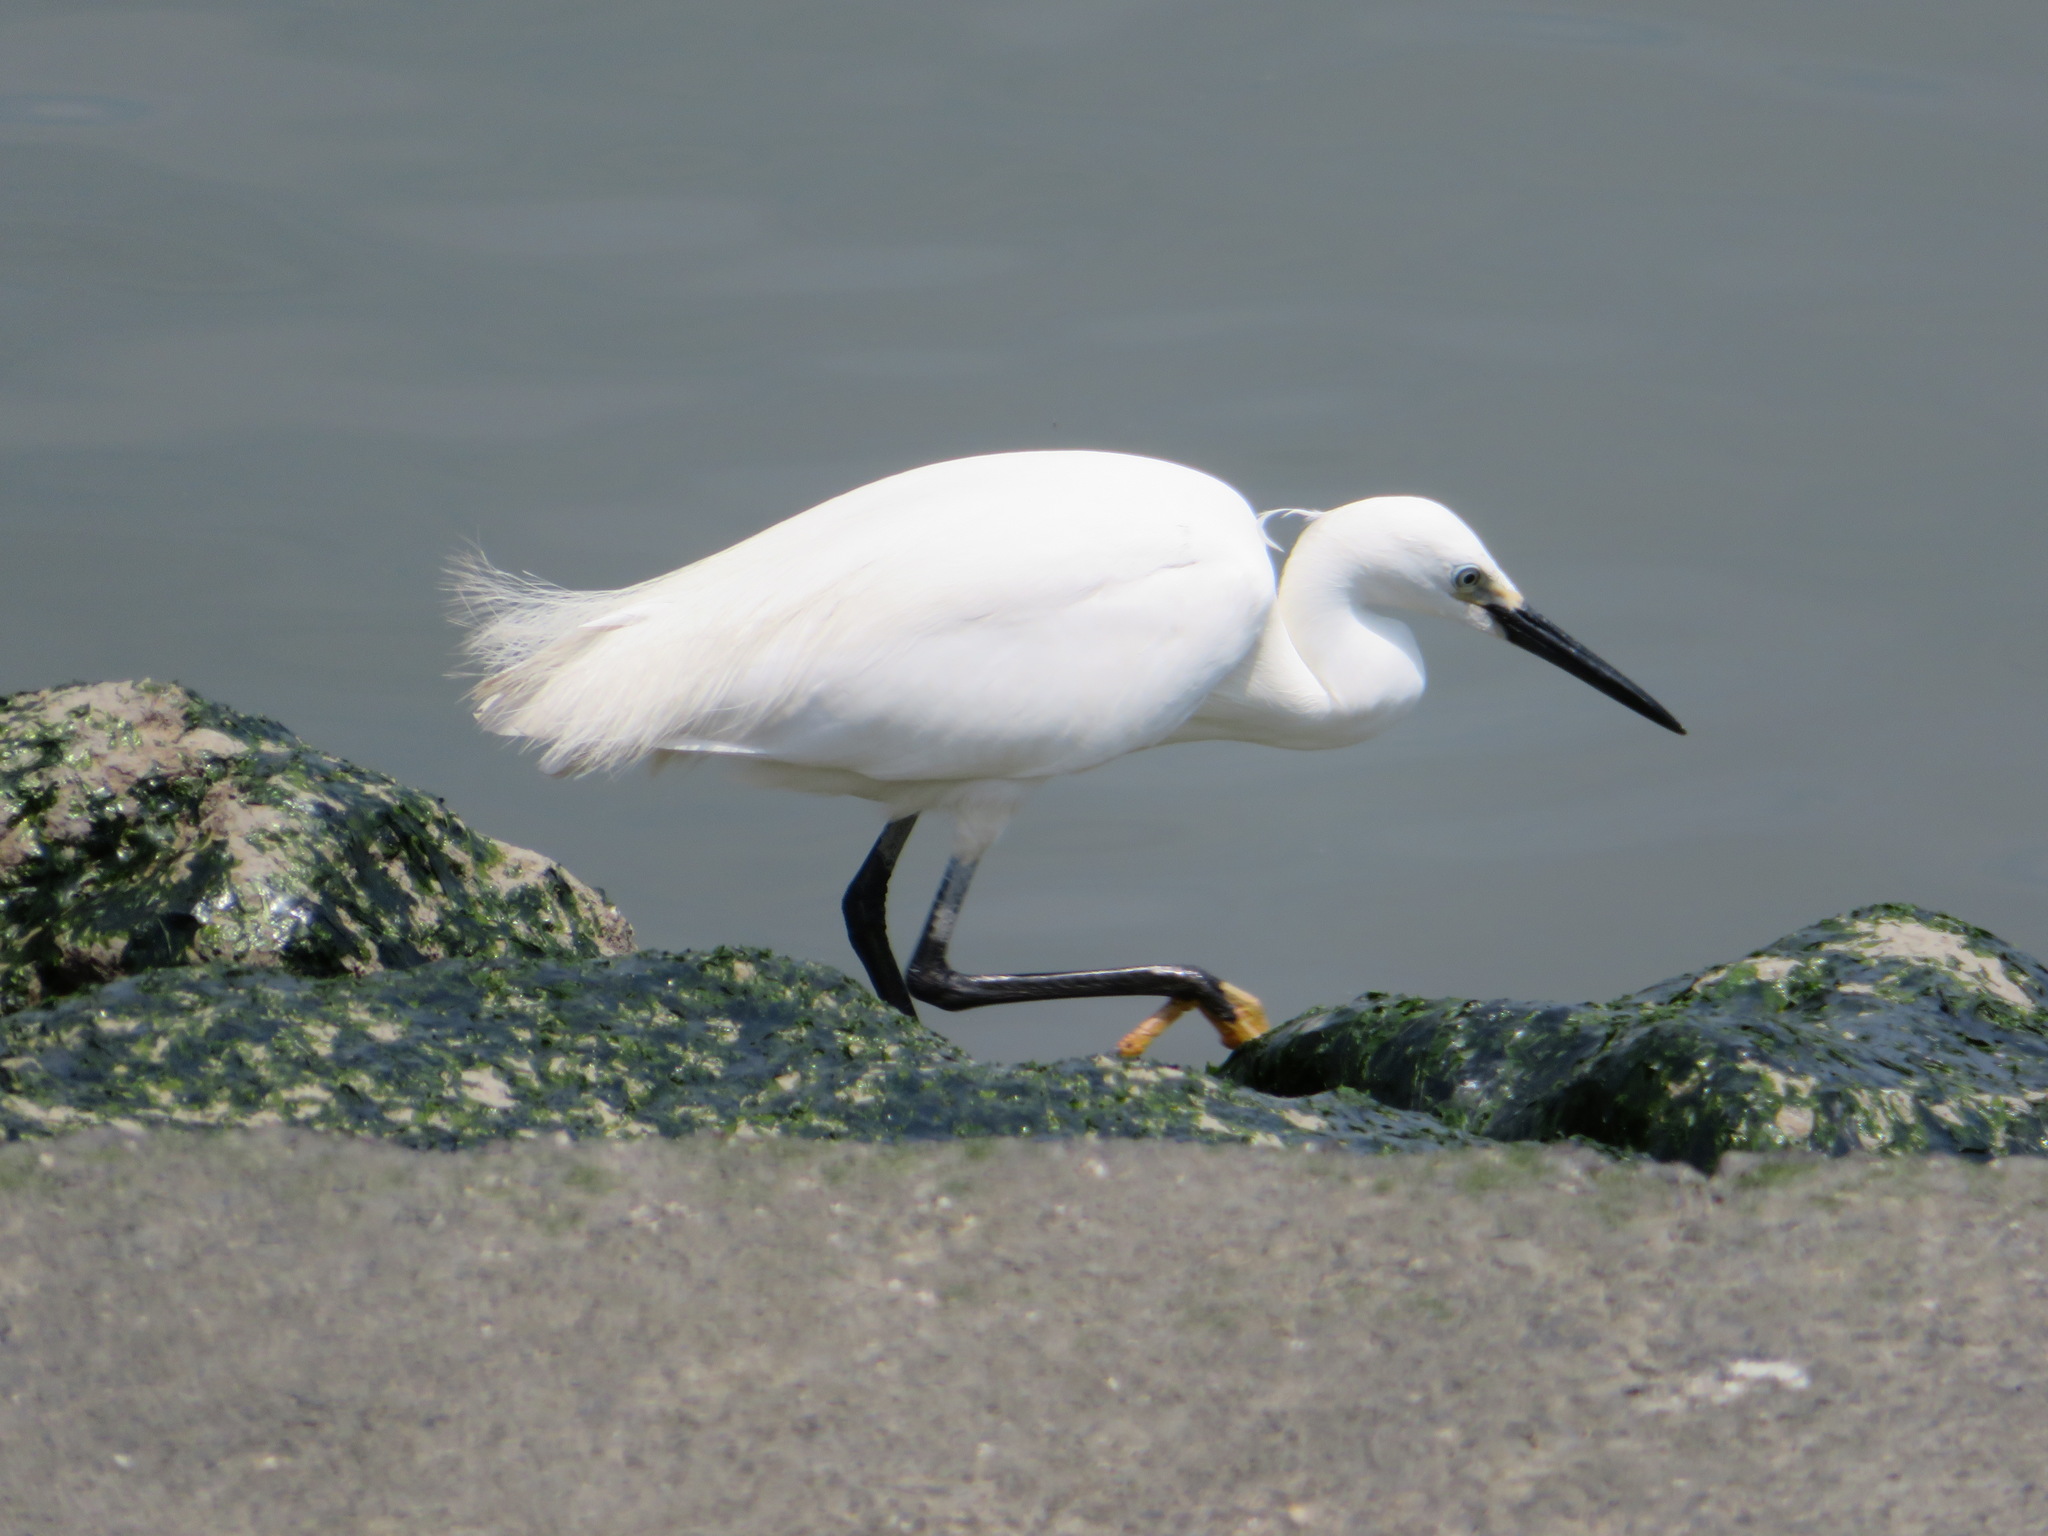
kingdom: Animalia
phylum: Chordata
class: Aves
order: Pelecaniformes
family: Ardeidae
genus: Egretta
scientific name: Egretta garzetta
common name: Little egret
